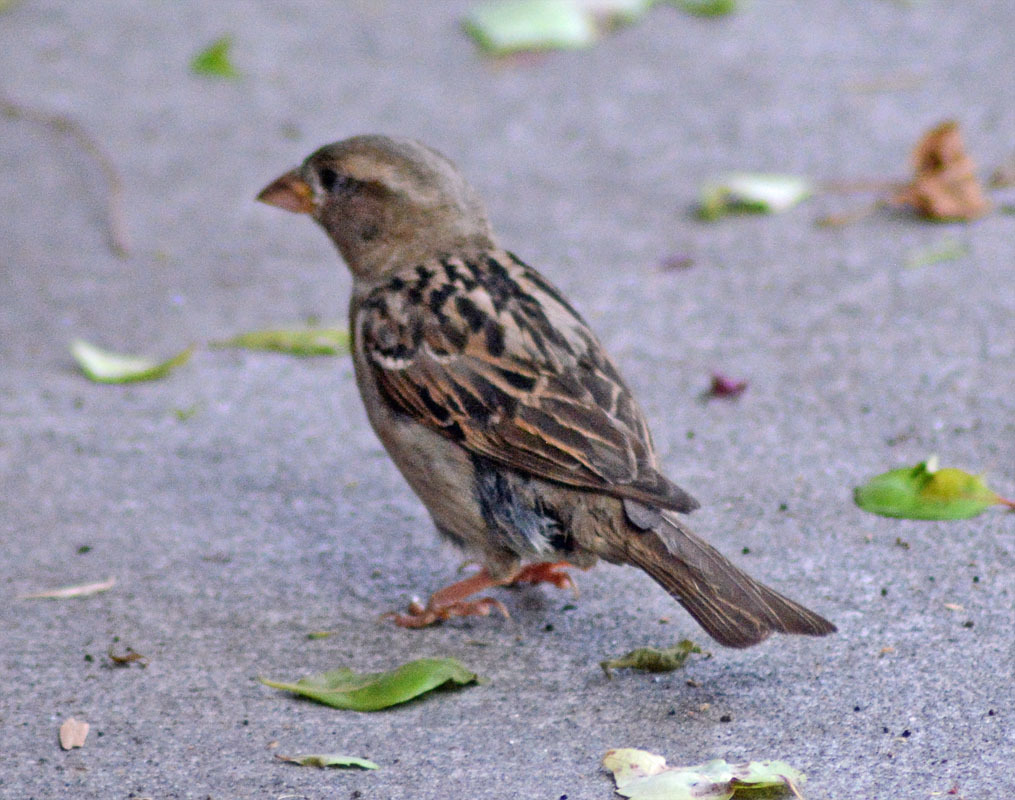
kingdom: Animalia
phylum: Chordata
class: Aves
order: Passeriformes
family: Passeridae
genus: Passer
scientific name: Passer domesticus
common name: House sparrow
